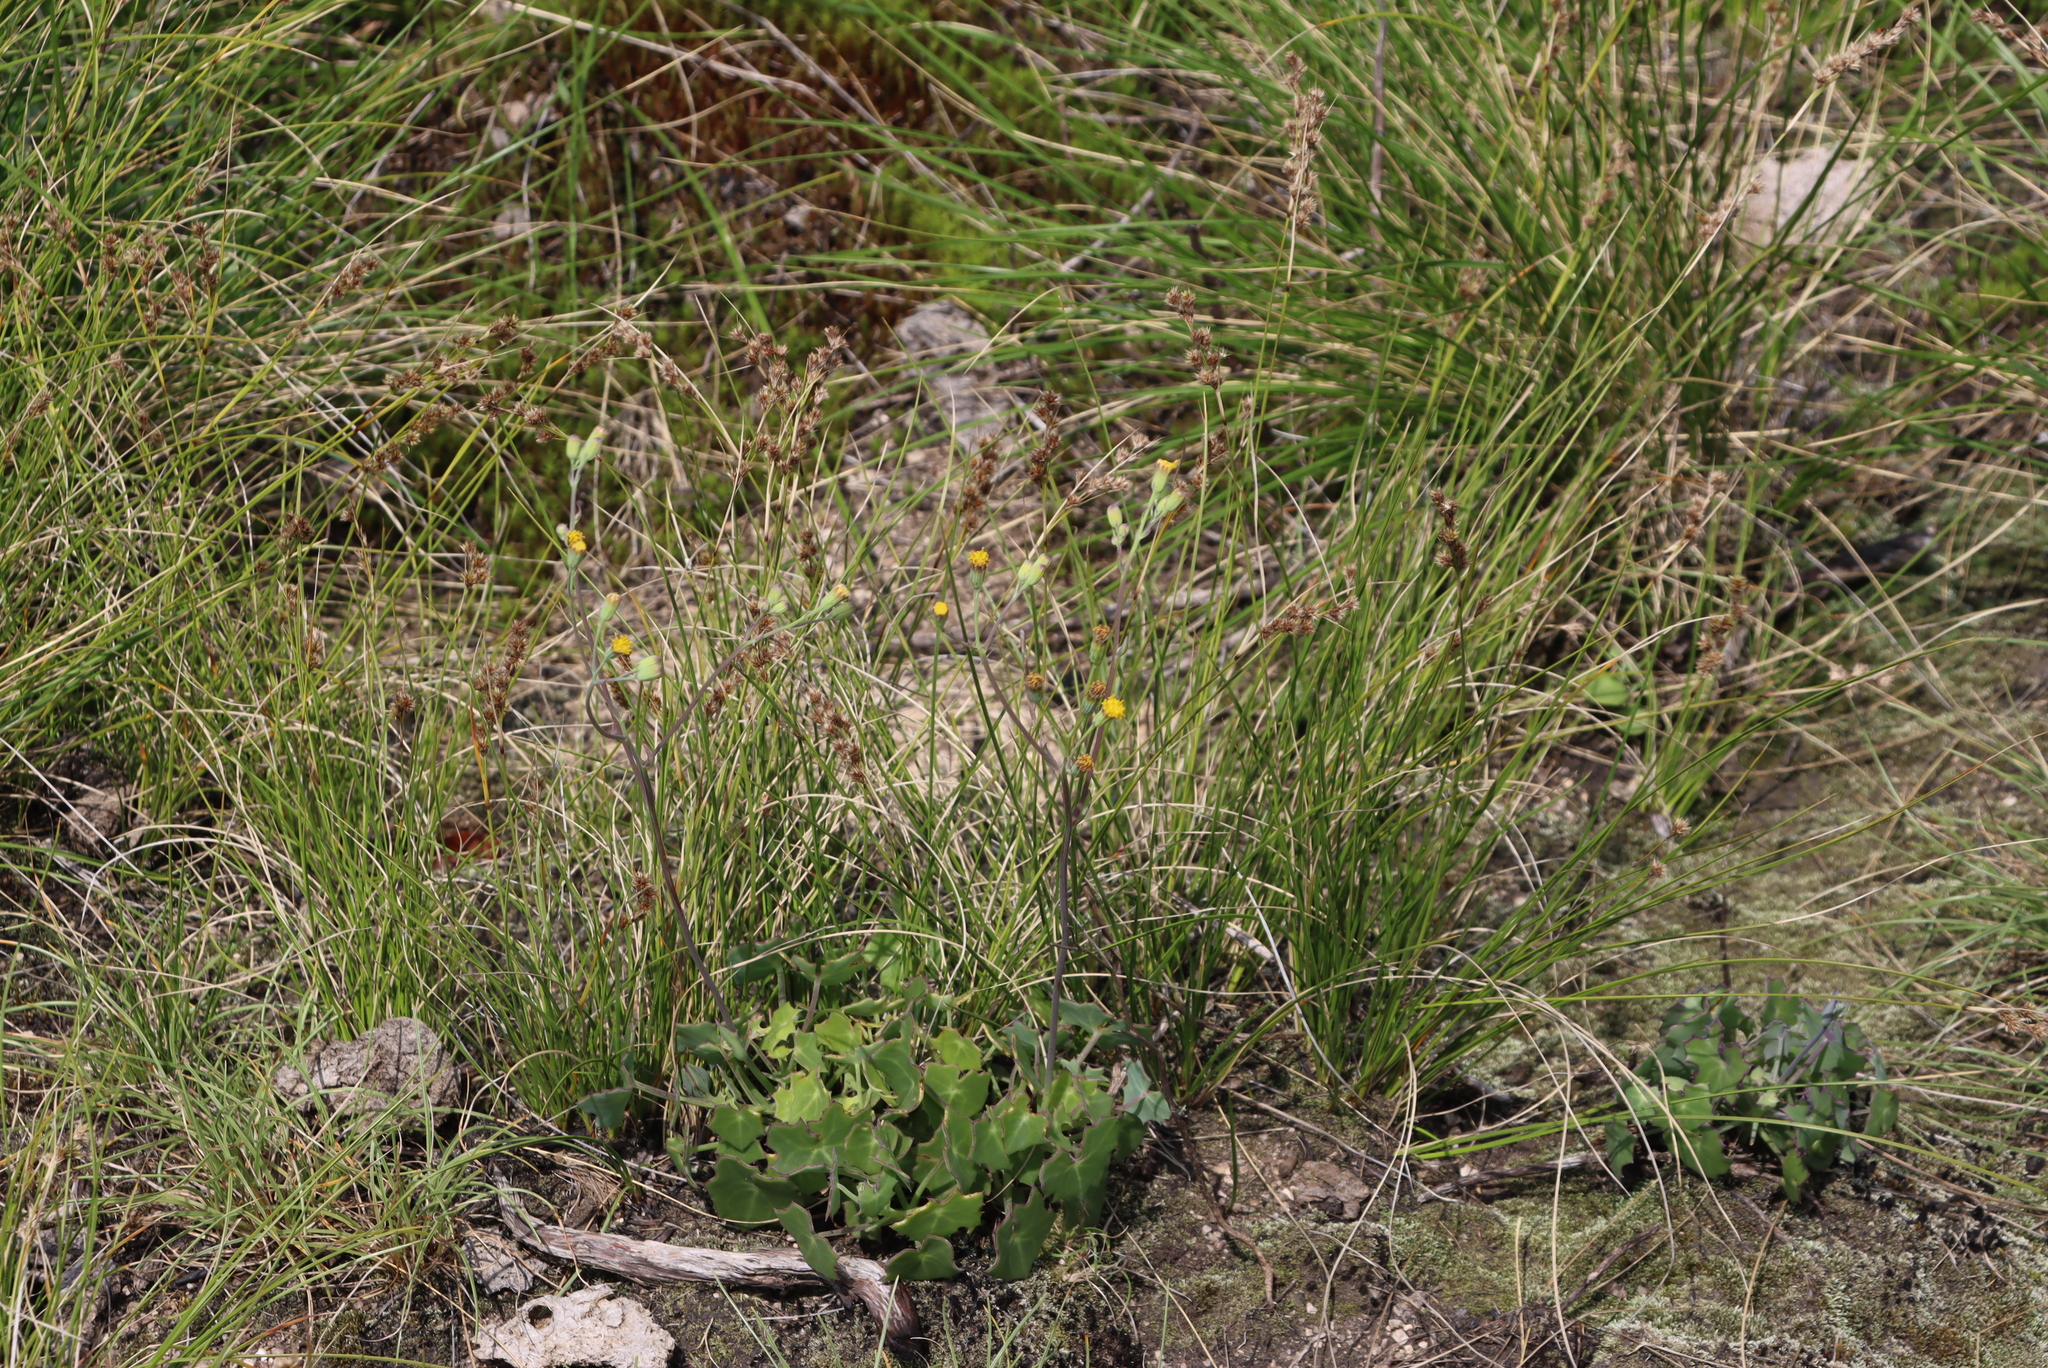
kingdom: Plantae
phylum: Tracheophyta
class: Magnoliopsida
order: Asterales
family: Asteraceae
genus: Senecio
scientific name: Senecio oxyriifolius
